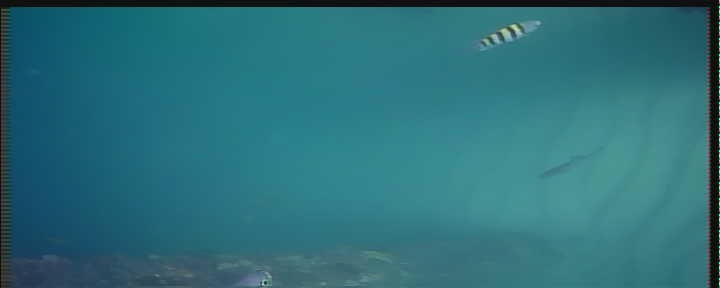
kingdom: Animalia
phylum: Chordata
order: Perciformes
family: Pomacentridae
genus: Abudefduf
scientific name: Abudefduf saxatilis
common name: Sergeant major
